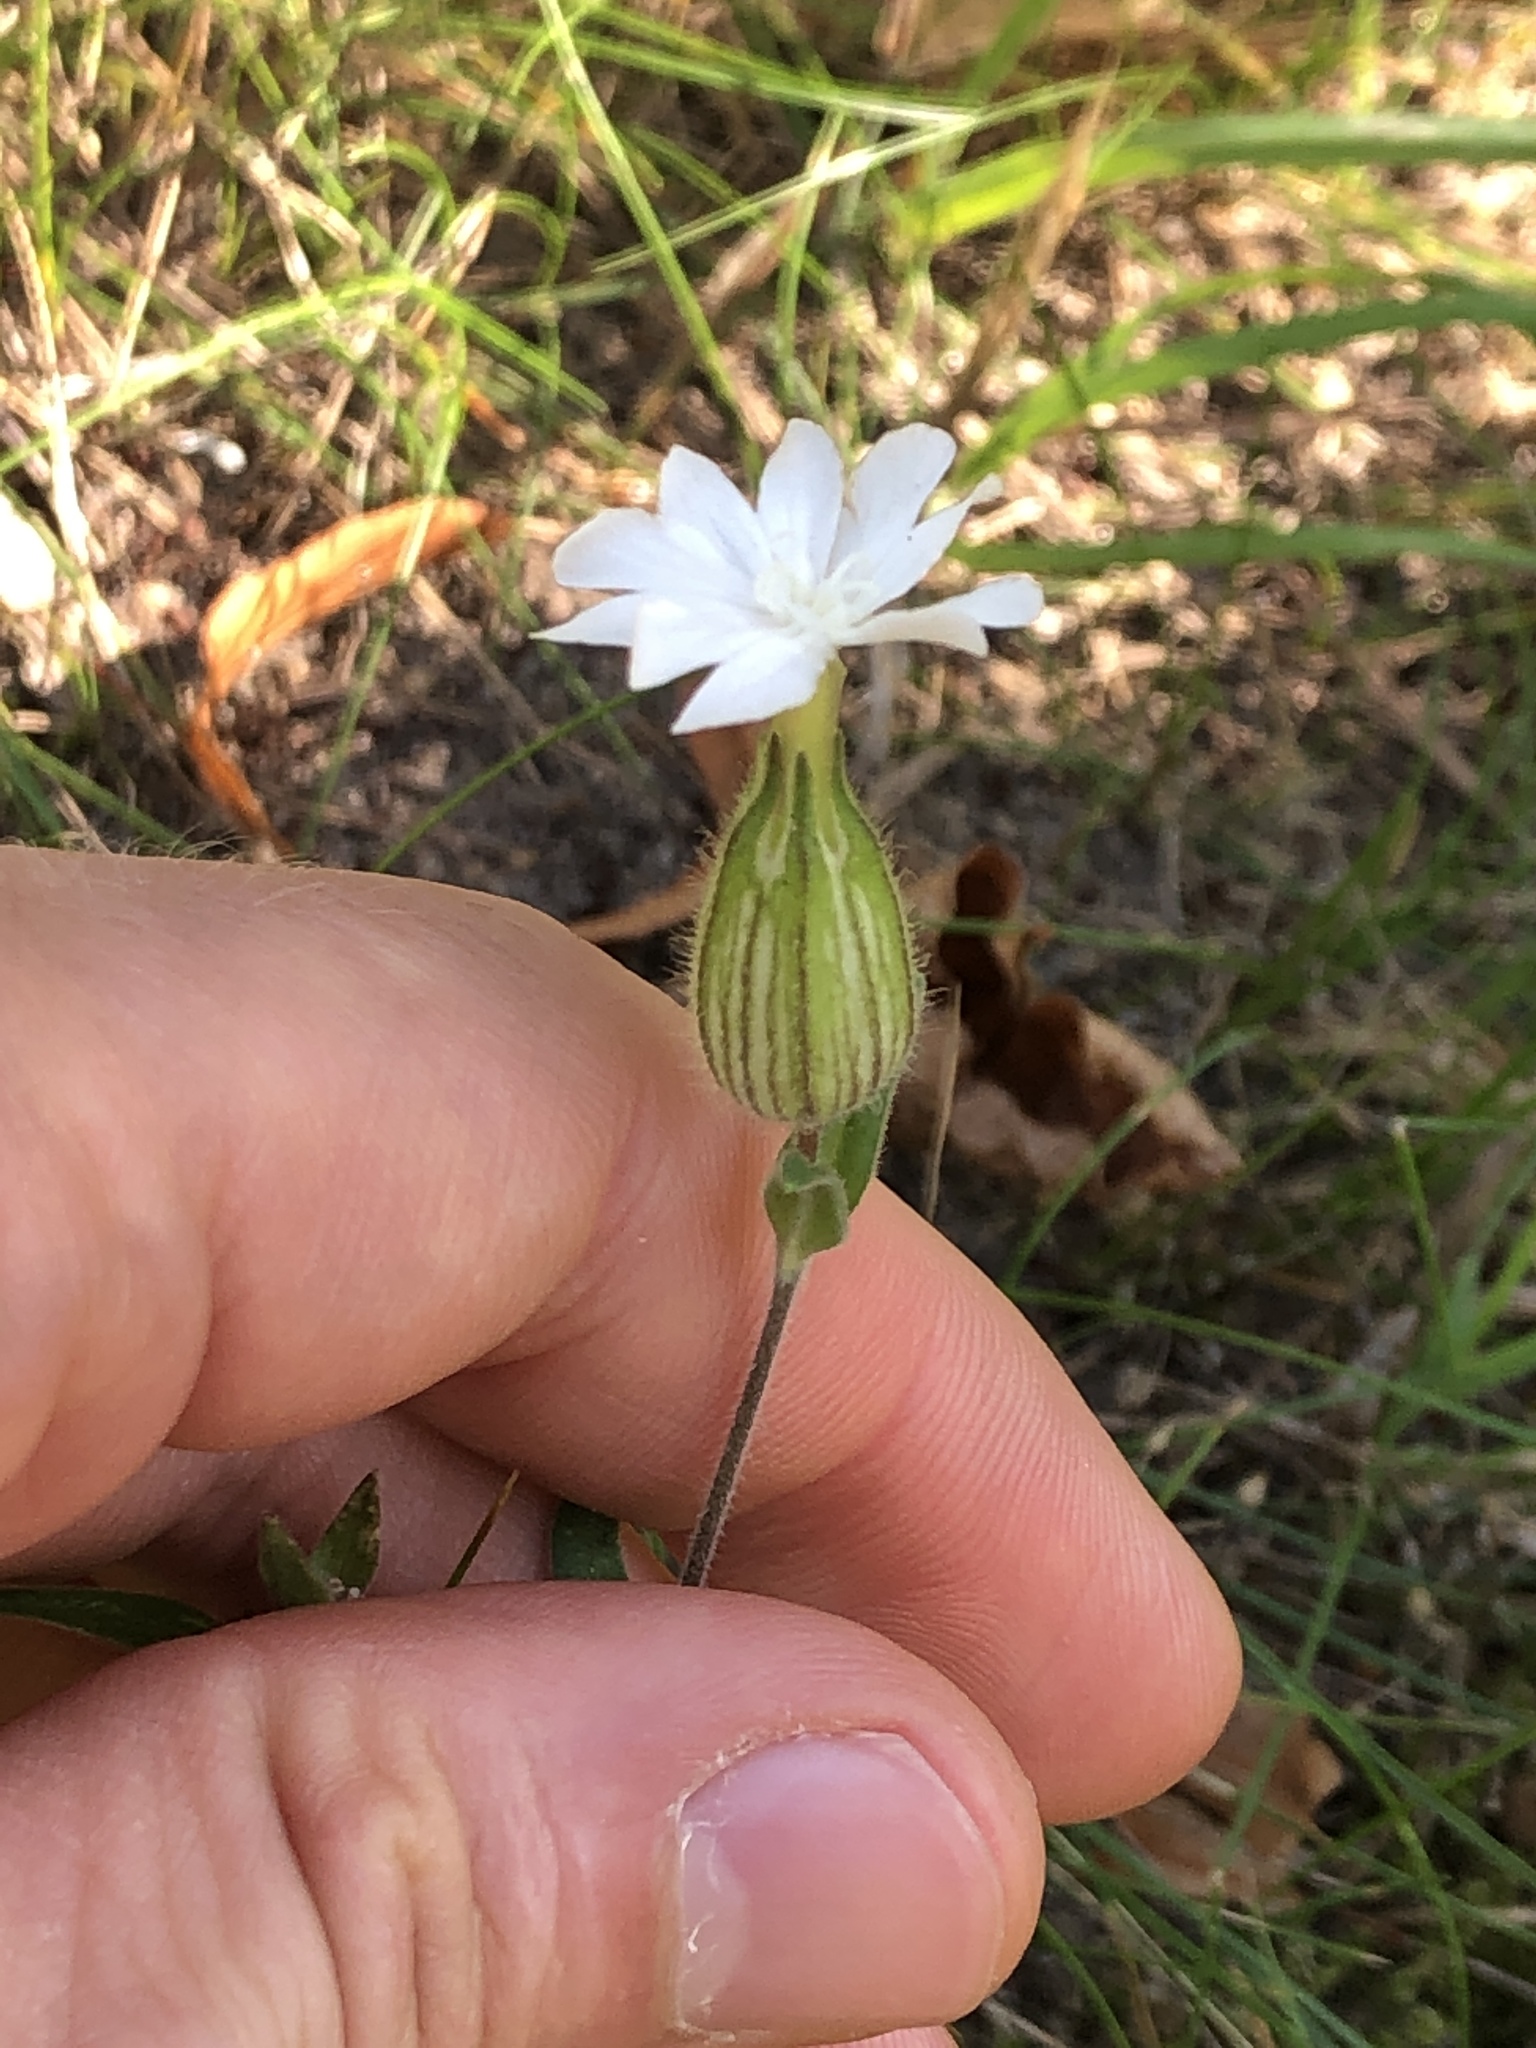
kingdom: Plantae
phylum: Tracheophyta
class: Magnoliopsida
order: Caryophyllales
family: Caryophyllaceae
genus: Silene
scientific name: Silene latifolia
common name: White campion
